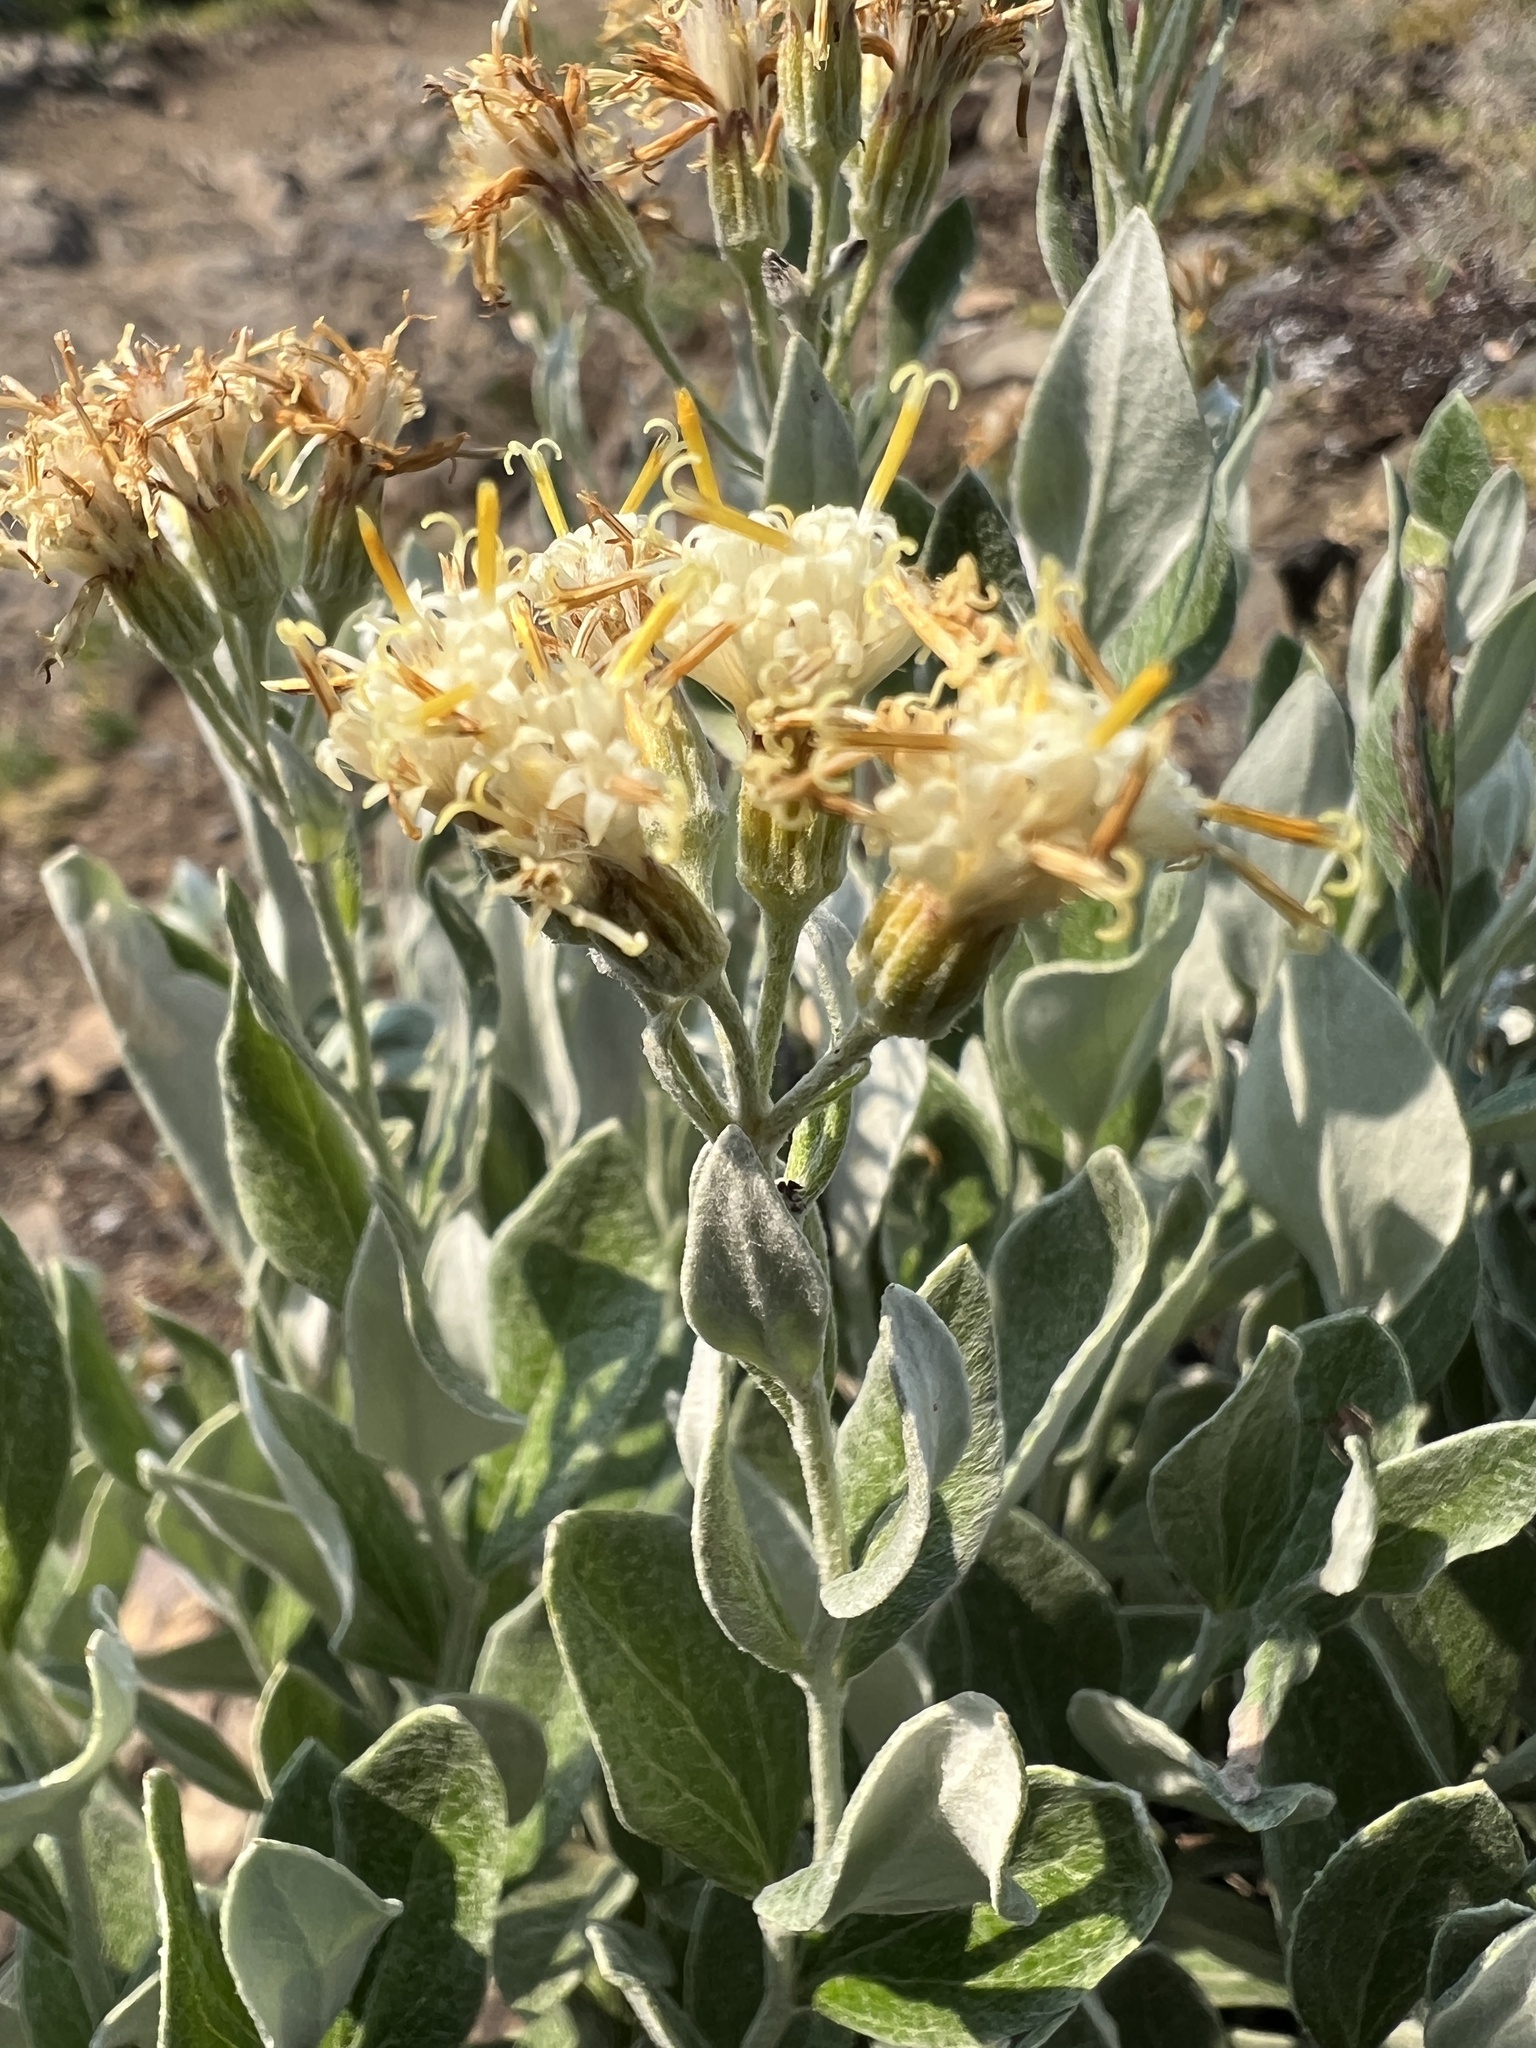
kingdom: Plantae
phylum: Tracheophyta
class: Magnoliopsida
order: Asterales
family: Asteraceae
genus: Luina
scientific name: Luina hypoleuca
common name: Little-leaved luina
